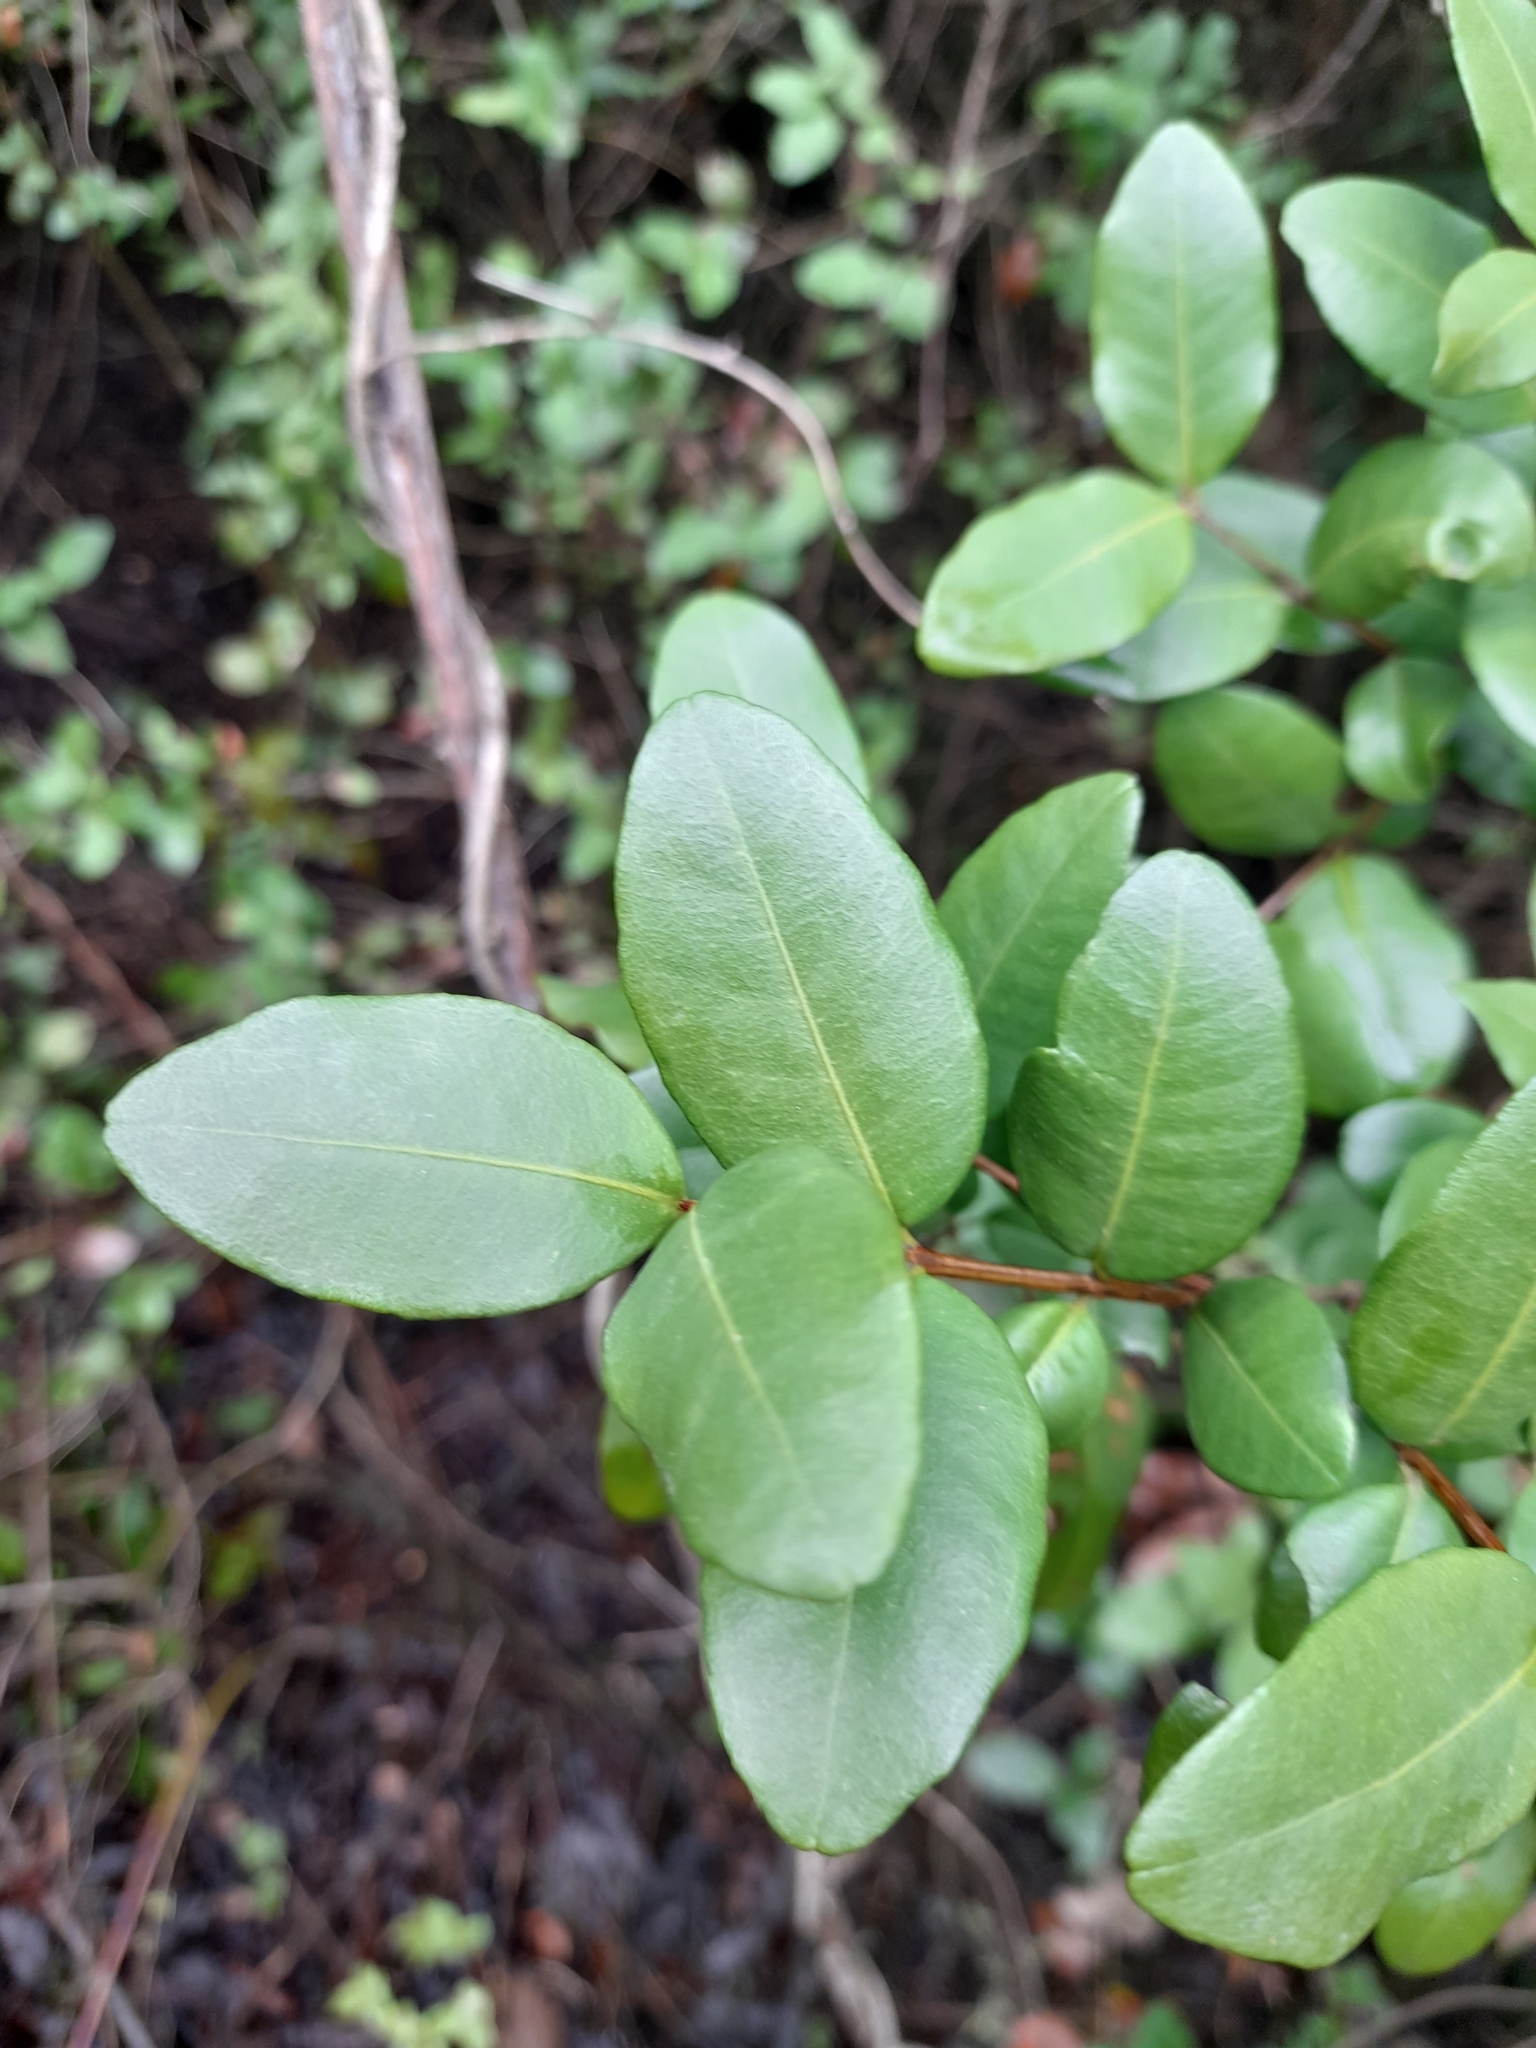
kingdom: Plantae
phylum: Tracheophyta
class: Magnoliopsida
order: Myrtales
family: Myrtaceae
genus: Blepharocalyx
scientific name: Blepharocalyx cruckshanksii
